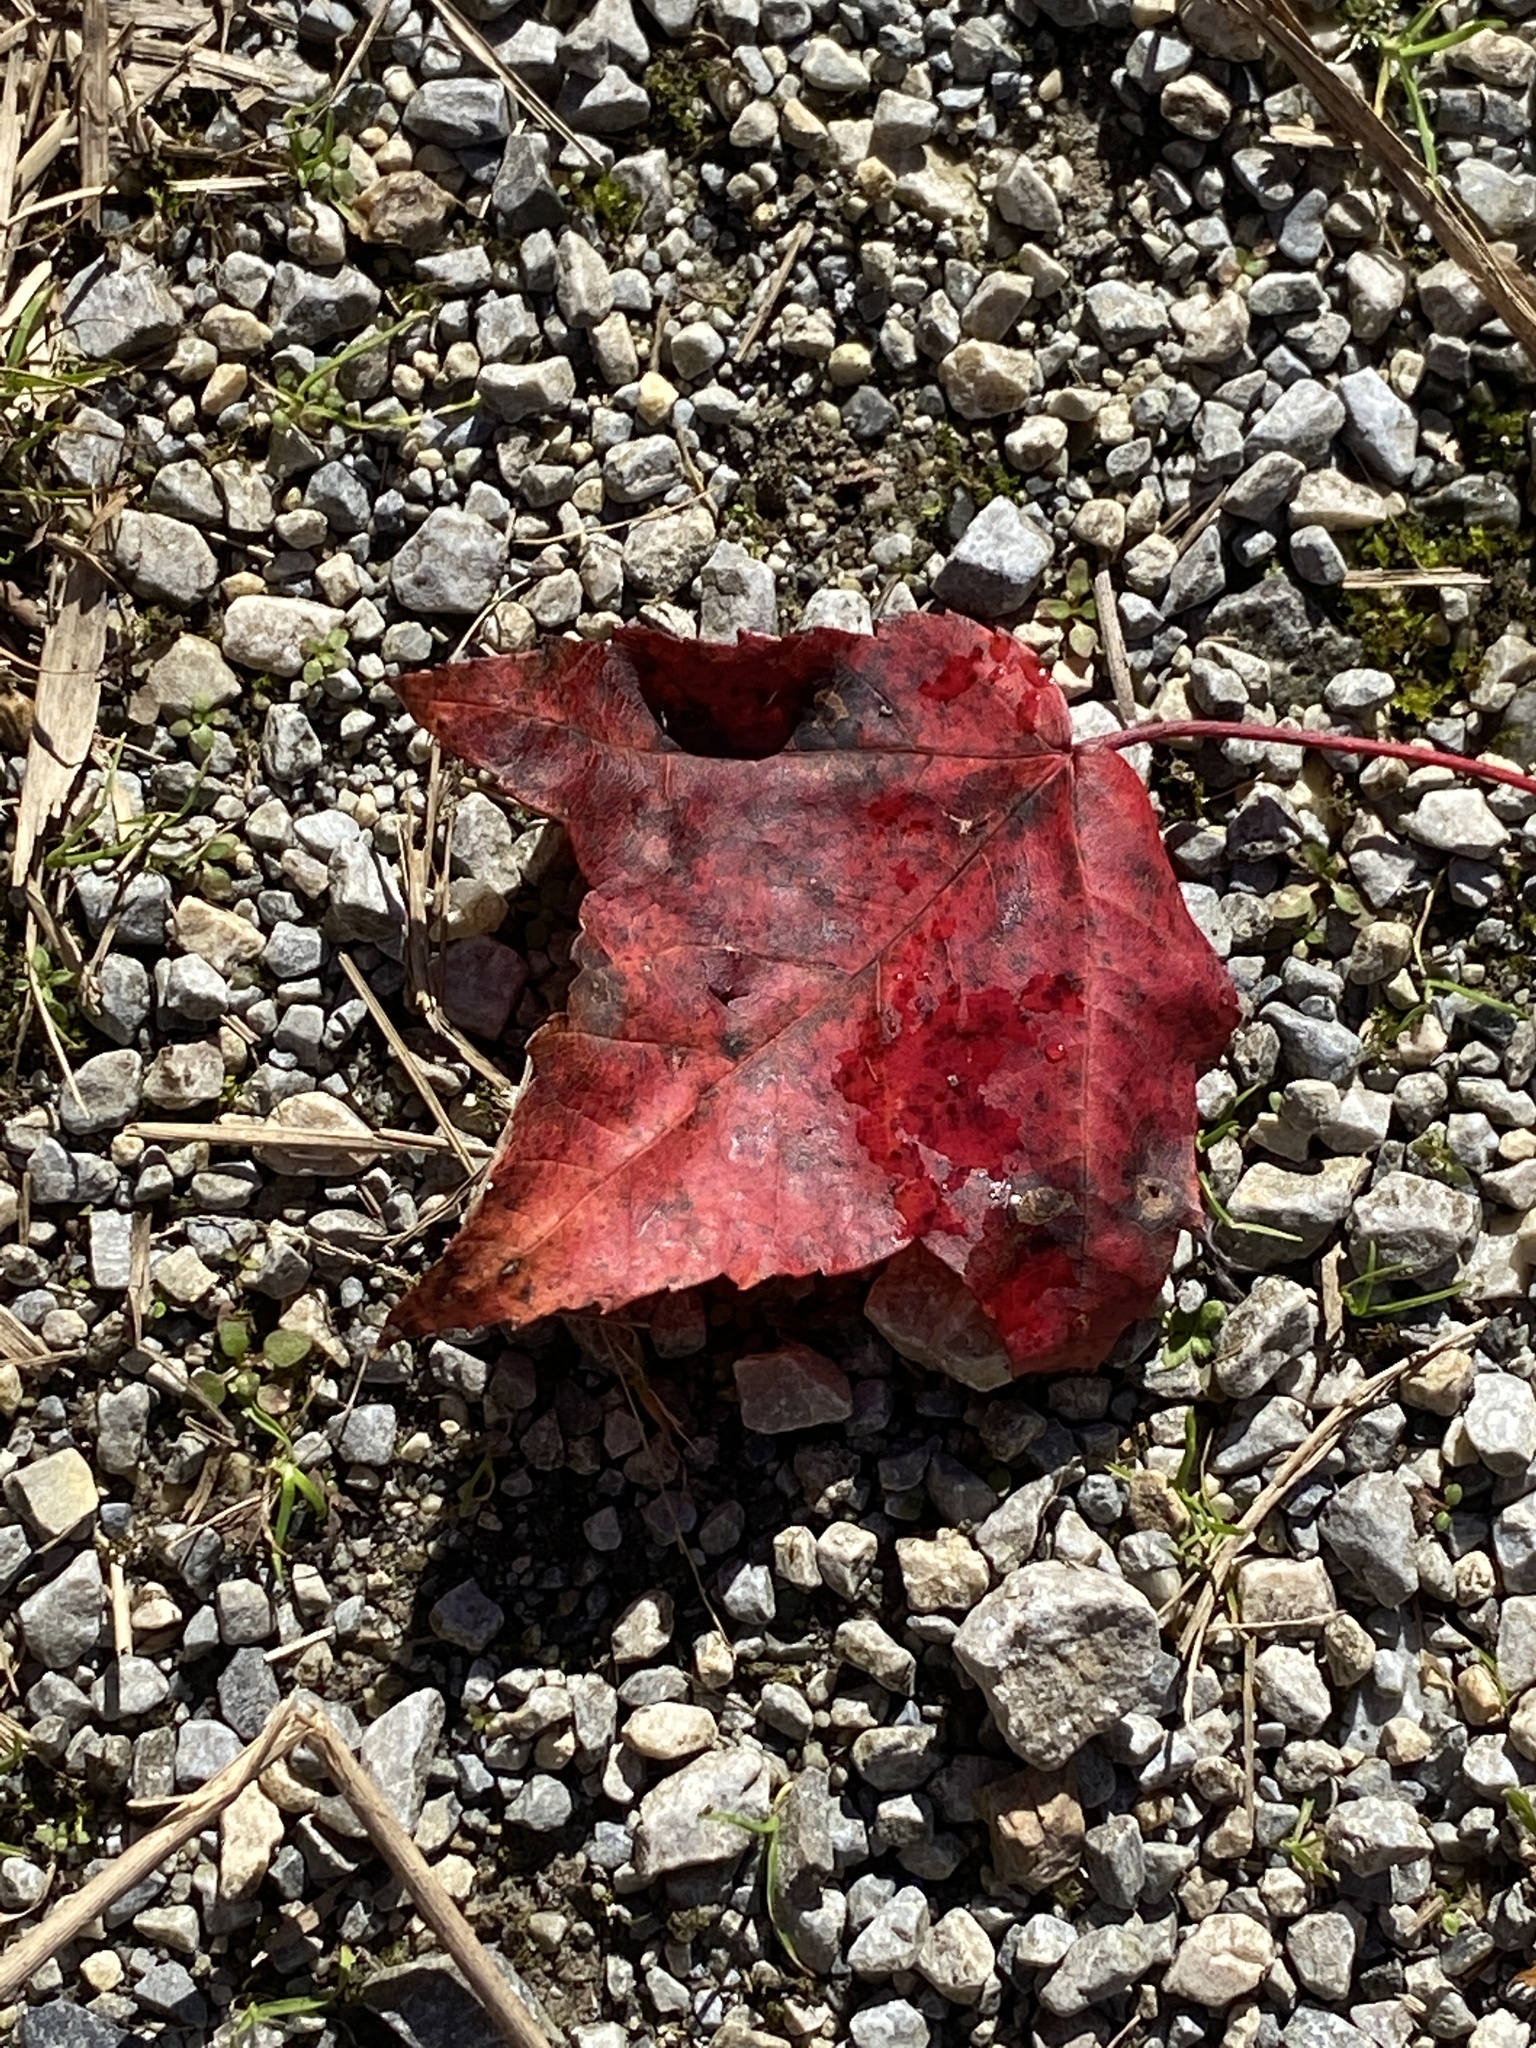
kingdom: Plantae
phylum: Tracheophyta
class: Magnoliopsida
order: Sapindales
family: Sapindaceae
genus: Acer
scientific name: Acer rubrum
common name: Red maple
